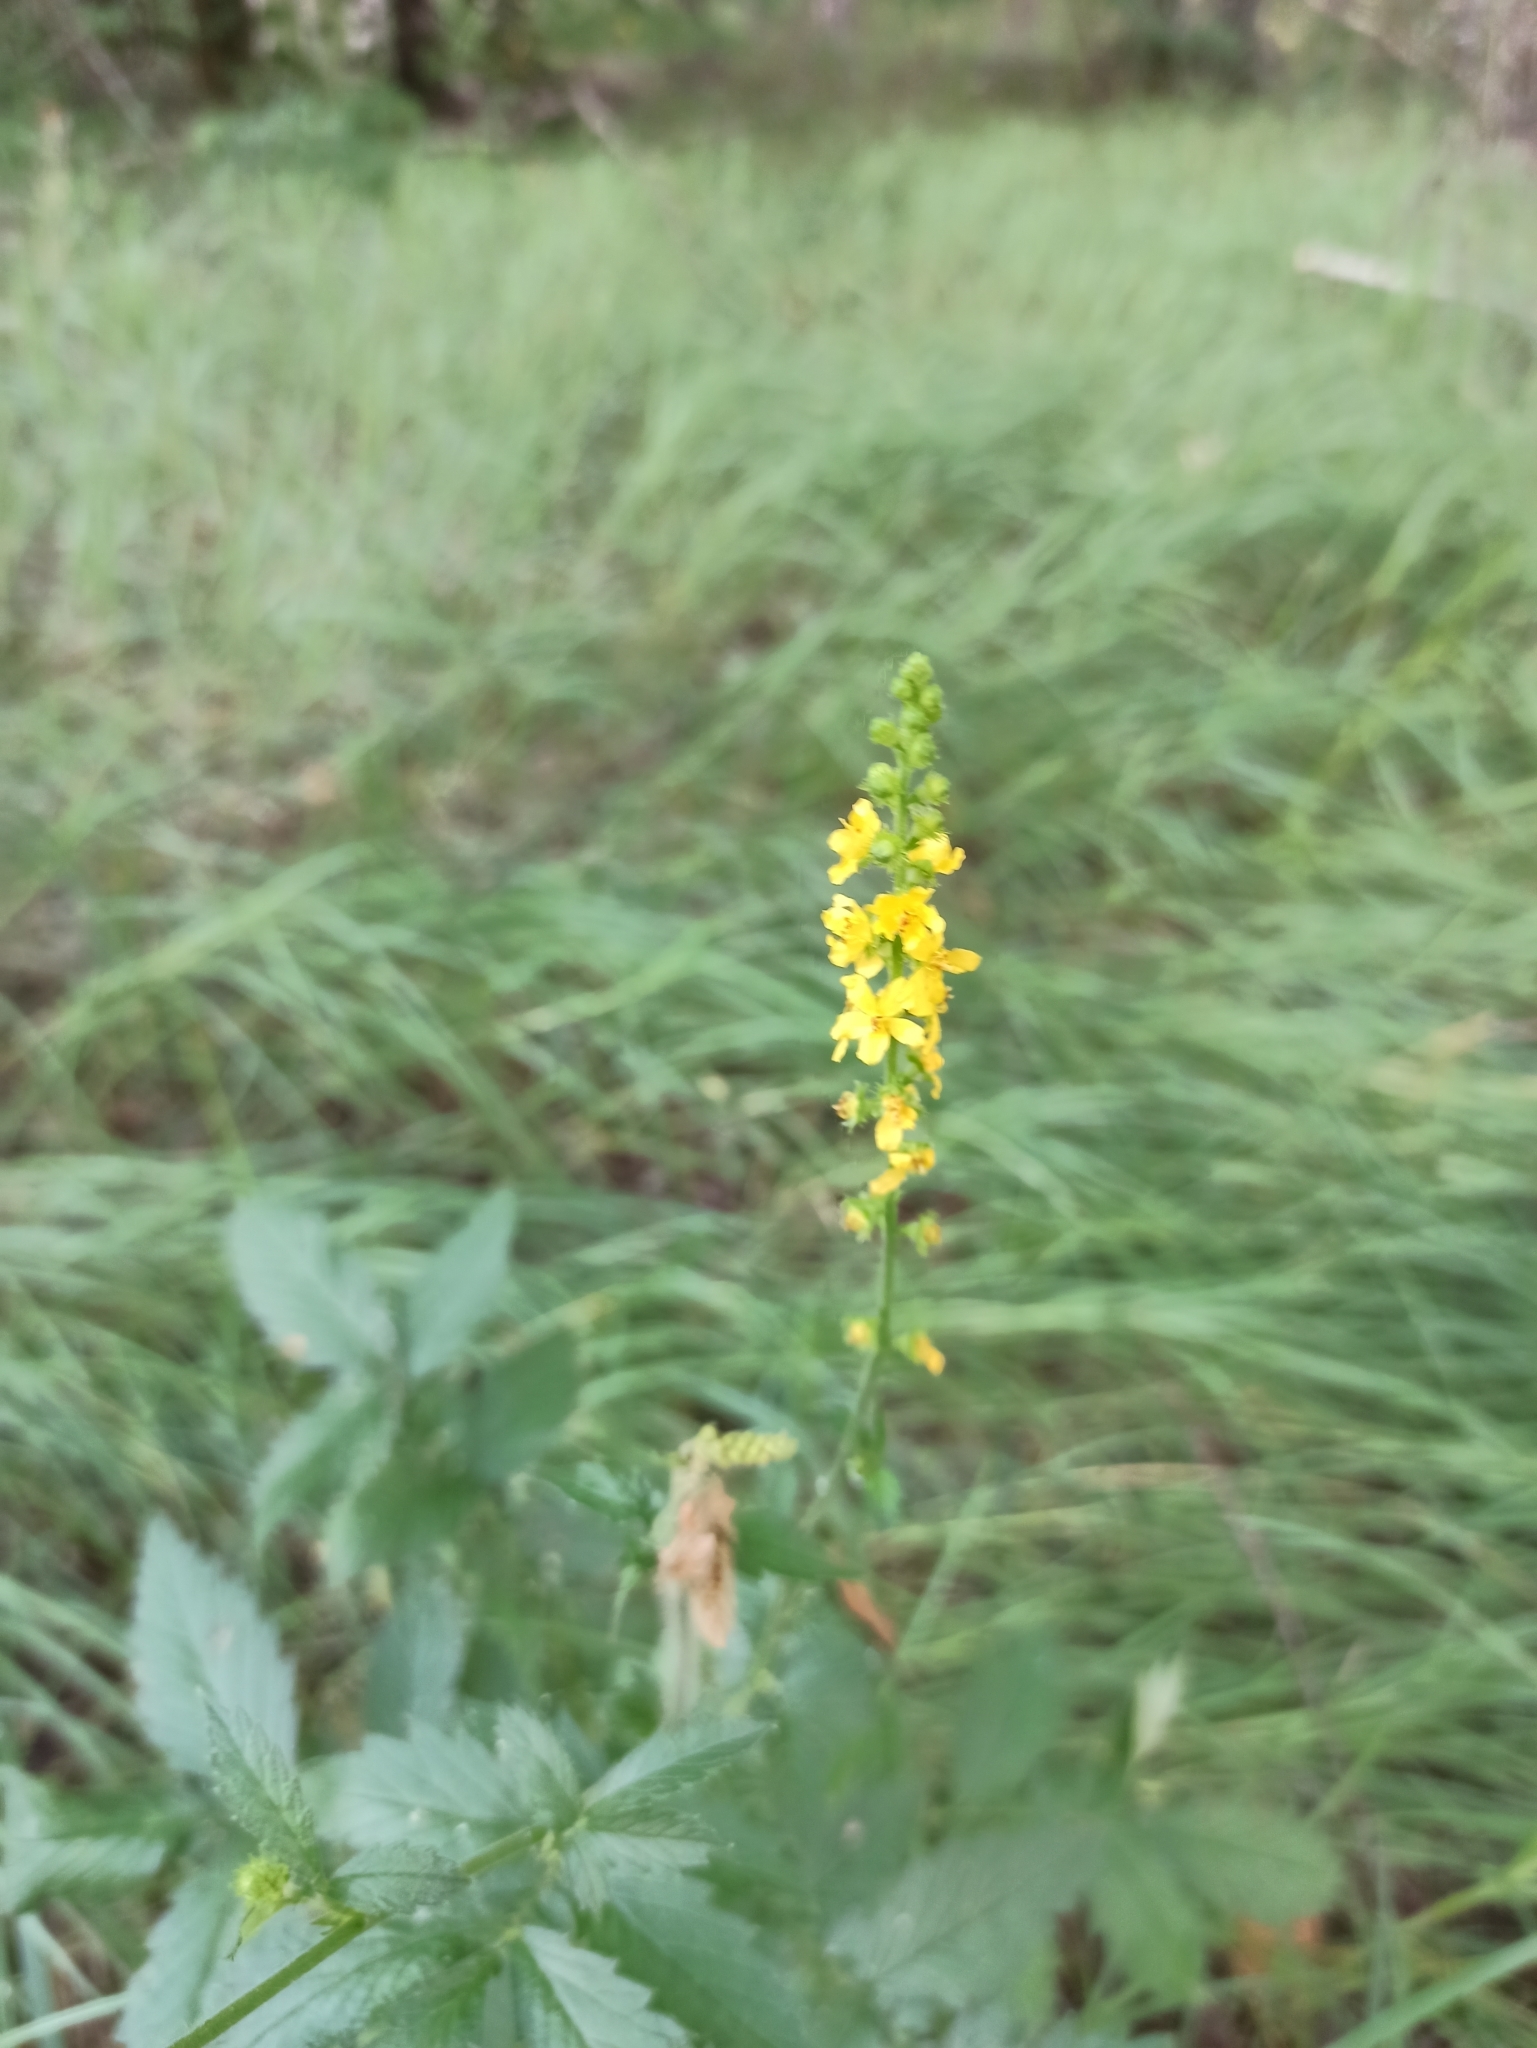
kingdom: Plantae
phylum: Tracheophyta
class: Magnoliopsida
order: Rosales
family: Rosaceae
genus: Agrimonia
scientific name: Agrimonia pilosa
